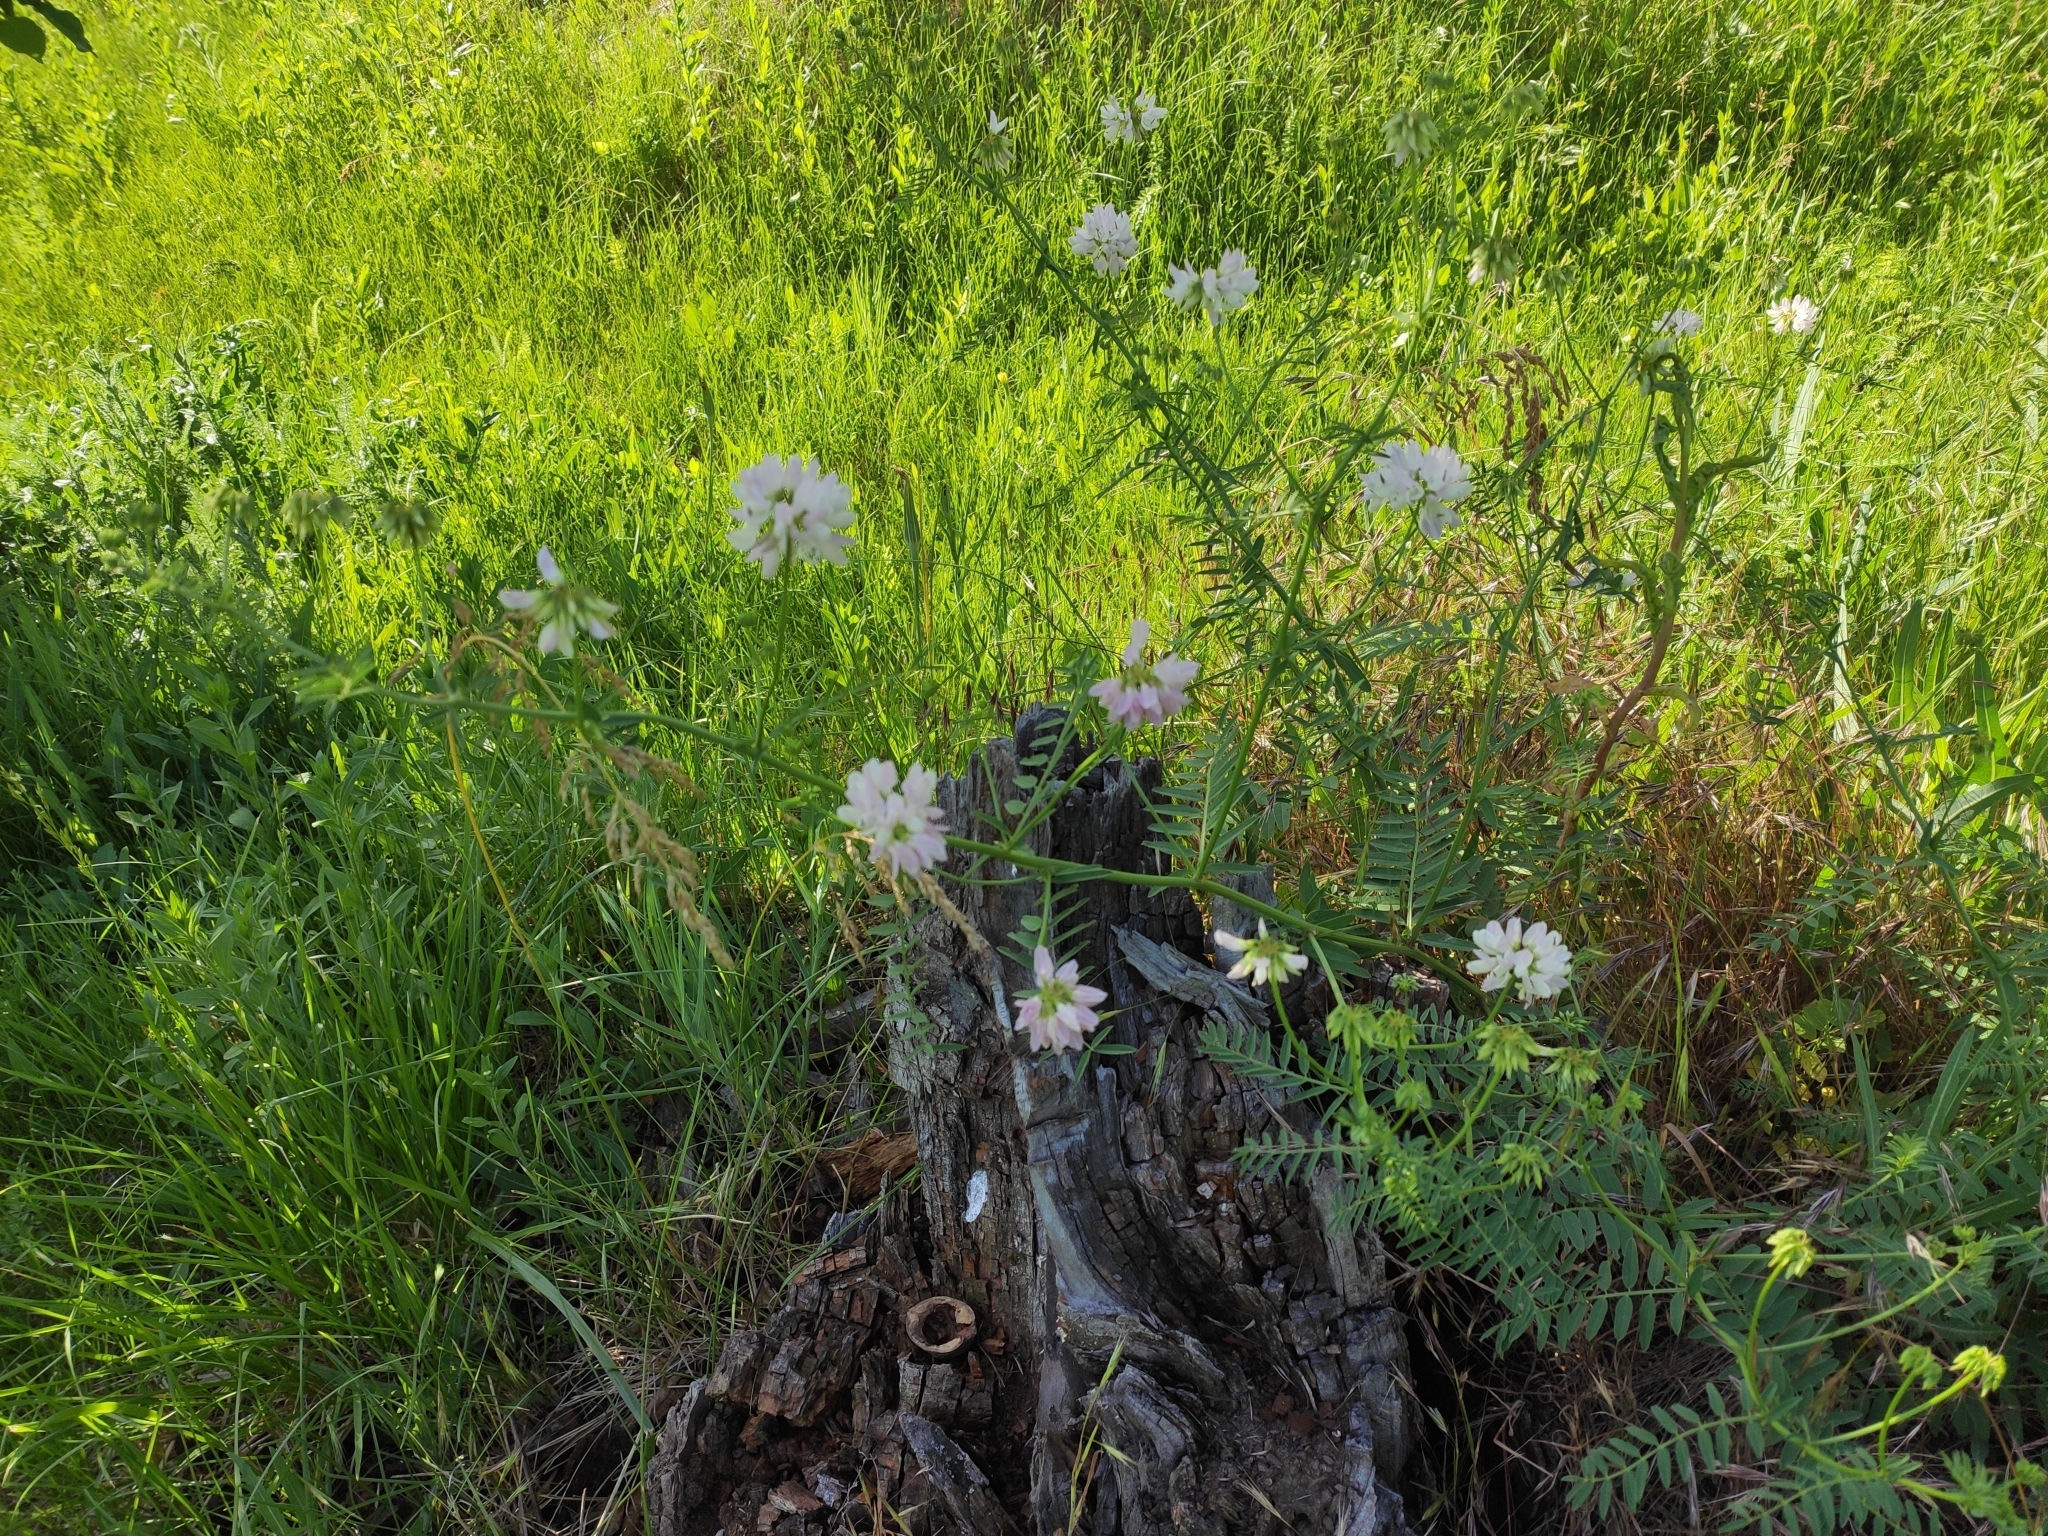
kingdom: Plantae
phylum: Tracheophyta
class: Magnoliopsida
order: Fabales
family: Fabaceae
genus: Coronilla
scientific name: Coronilla varia
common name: Crownvetch
